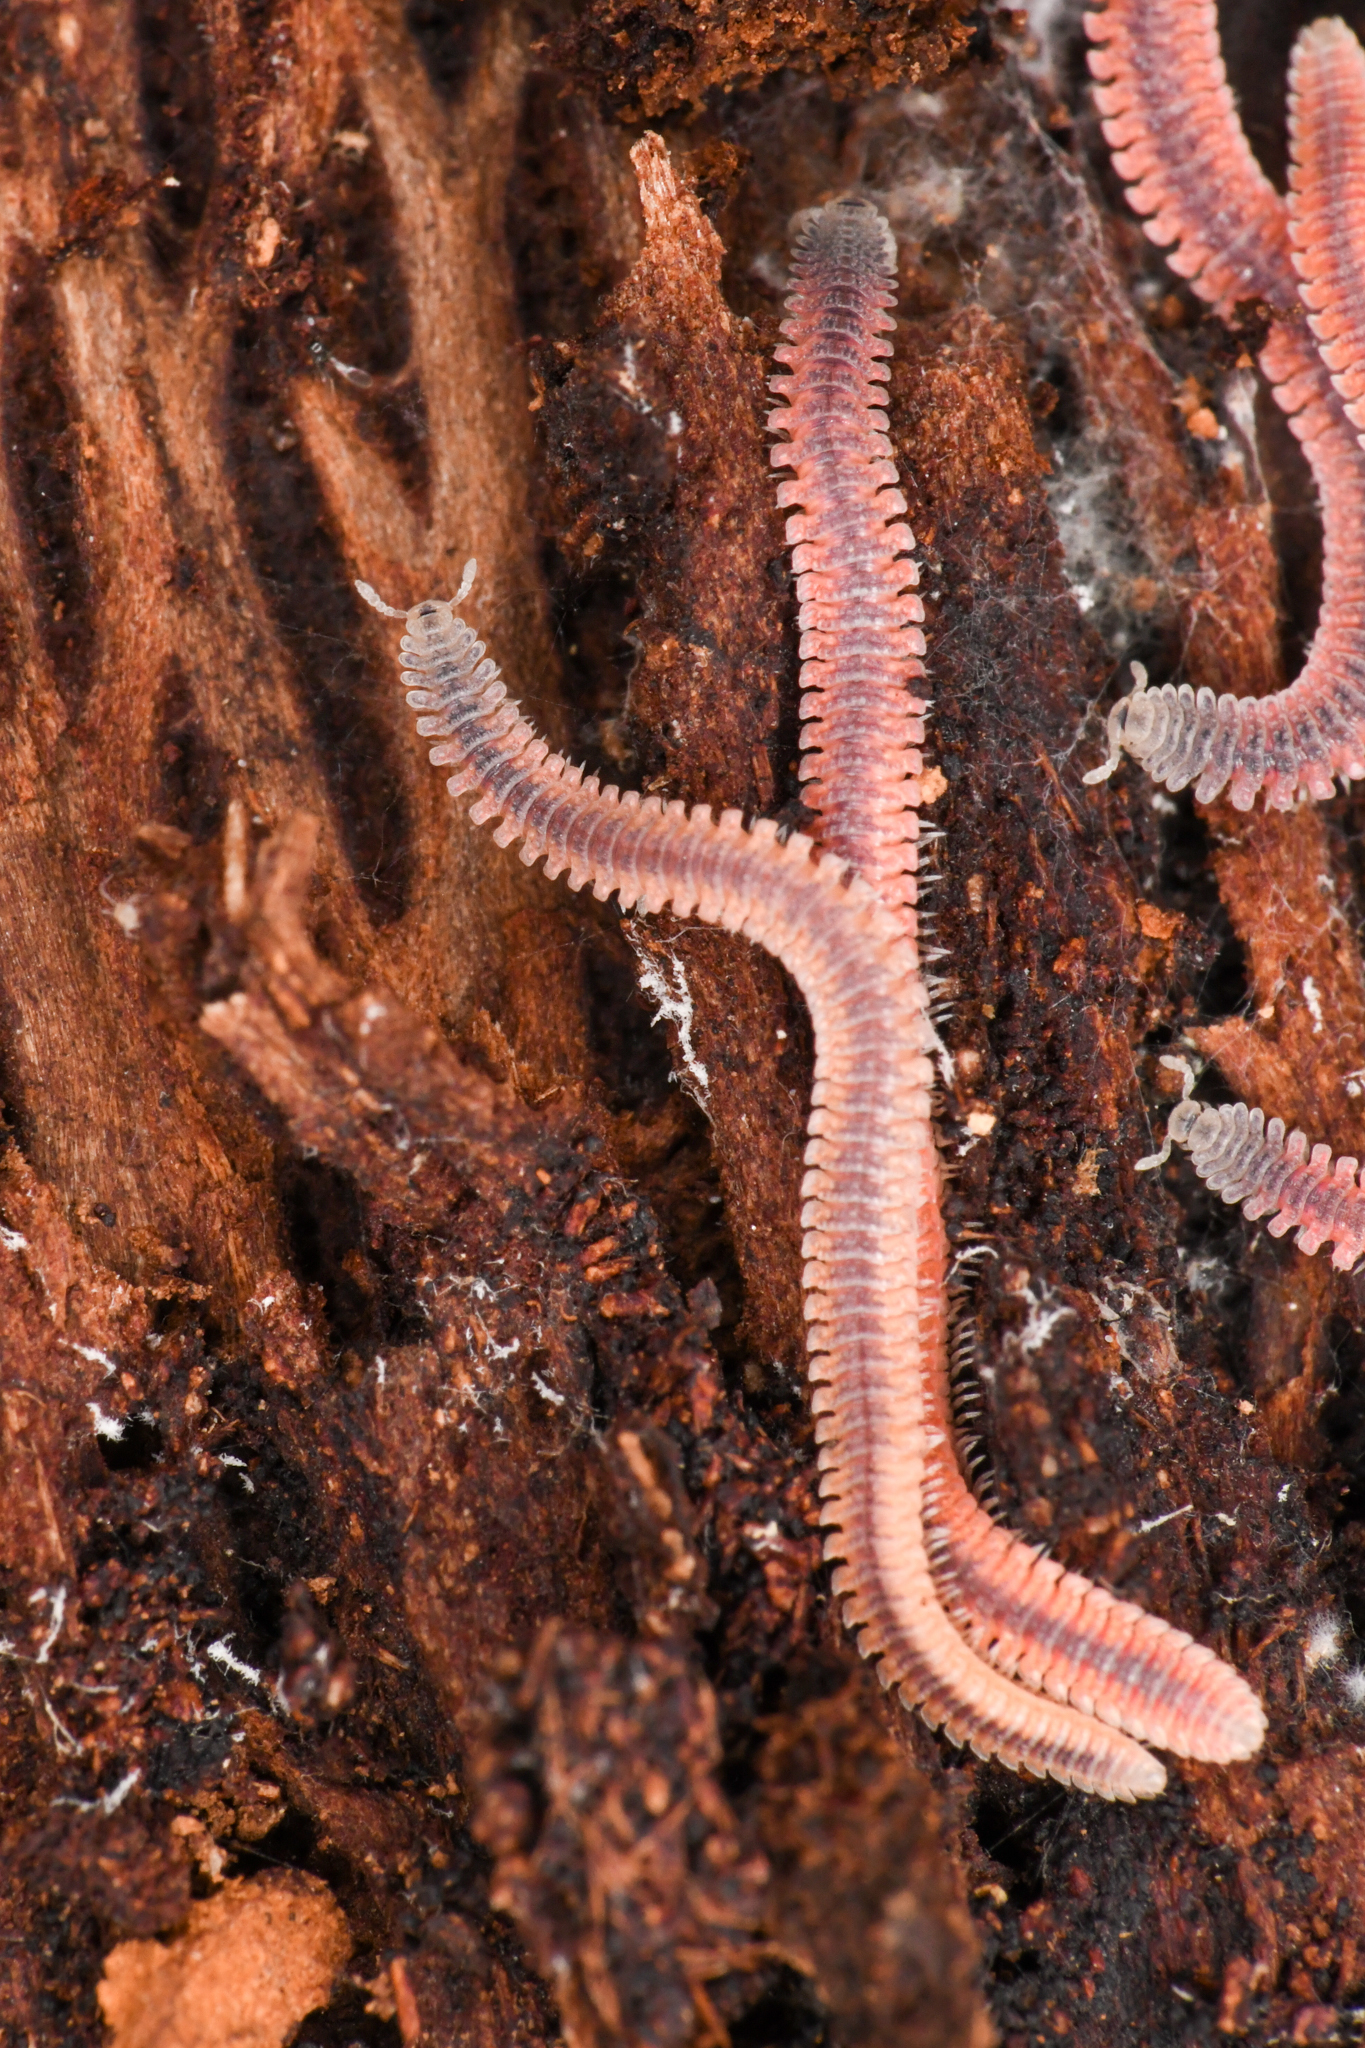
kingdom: Animalia
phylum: Arthropoda
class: Diplopoda
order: Platydesmida
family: Andrognathidae
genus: Gosodesmus
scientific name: Gosodesmus claremontus
